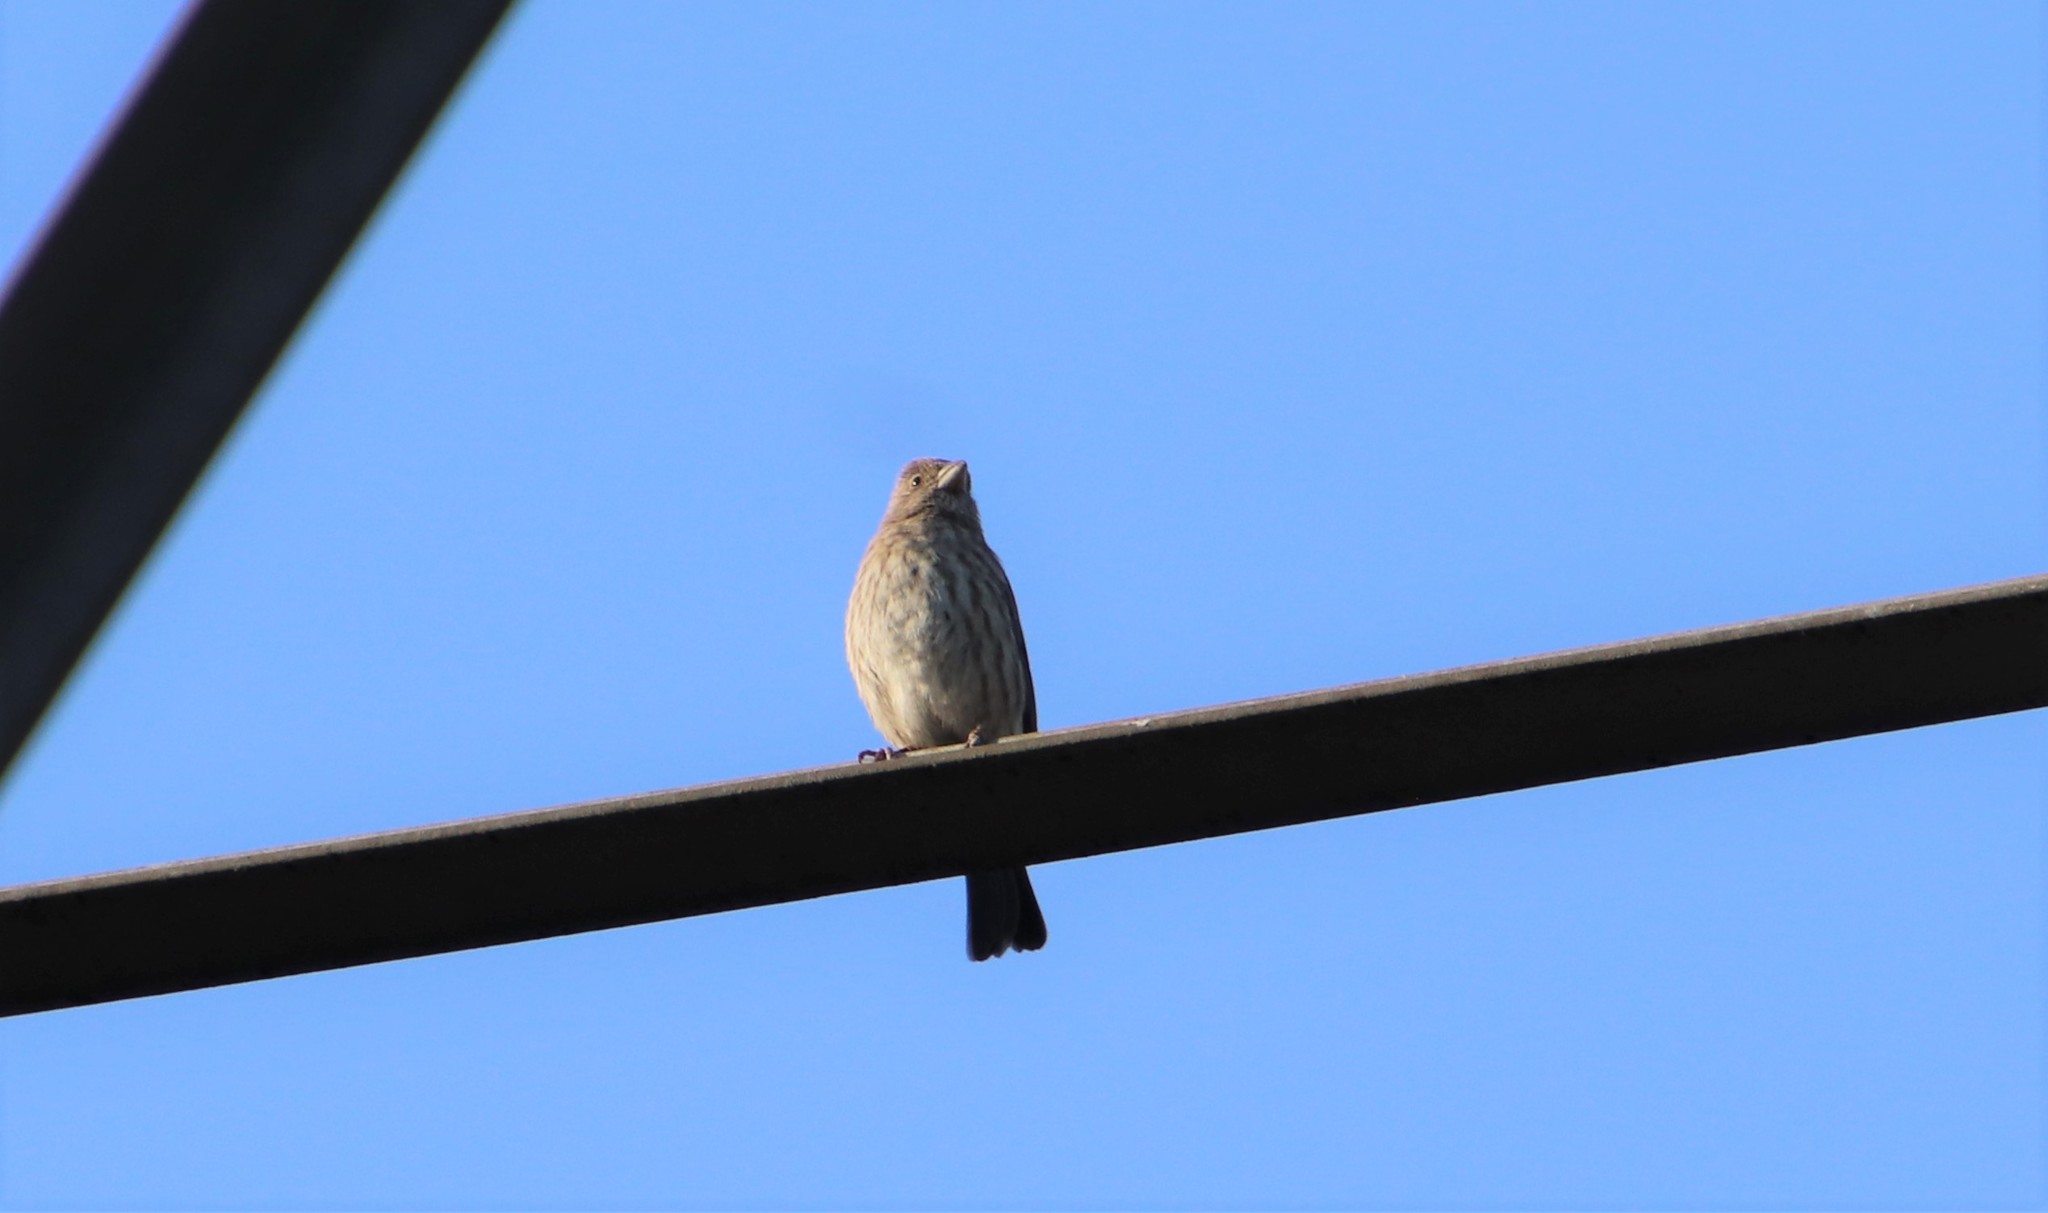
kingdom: Animalia
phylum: Chordata
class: Aves
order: Passeriformes
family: Fringillidae
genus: Haemorhous
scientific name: Haemorhous mexicanus
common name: House finch
